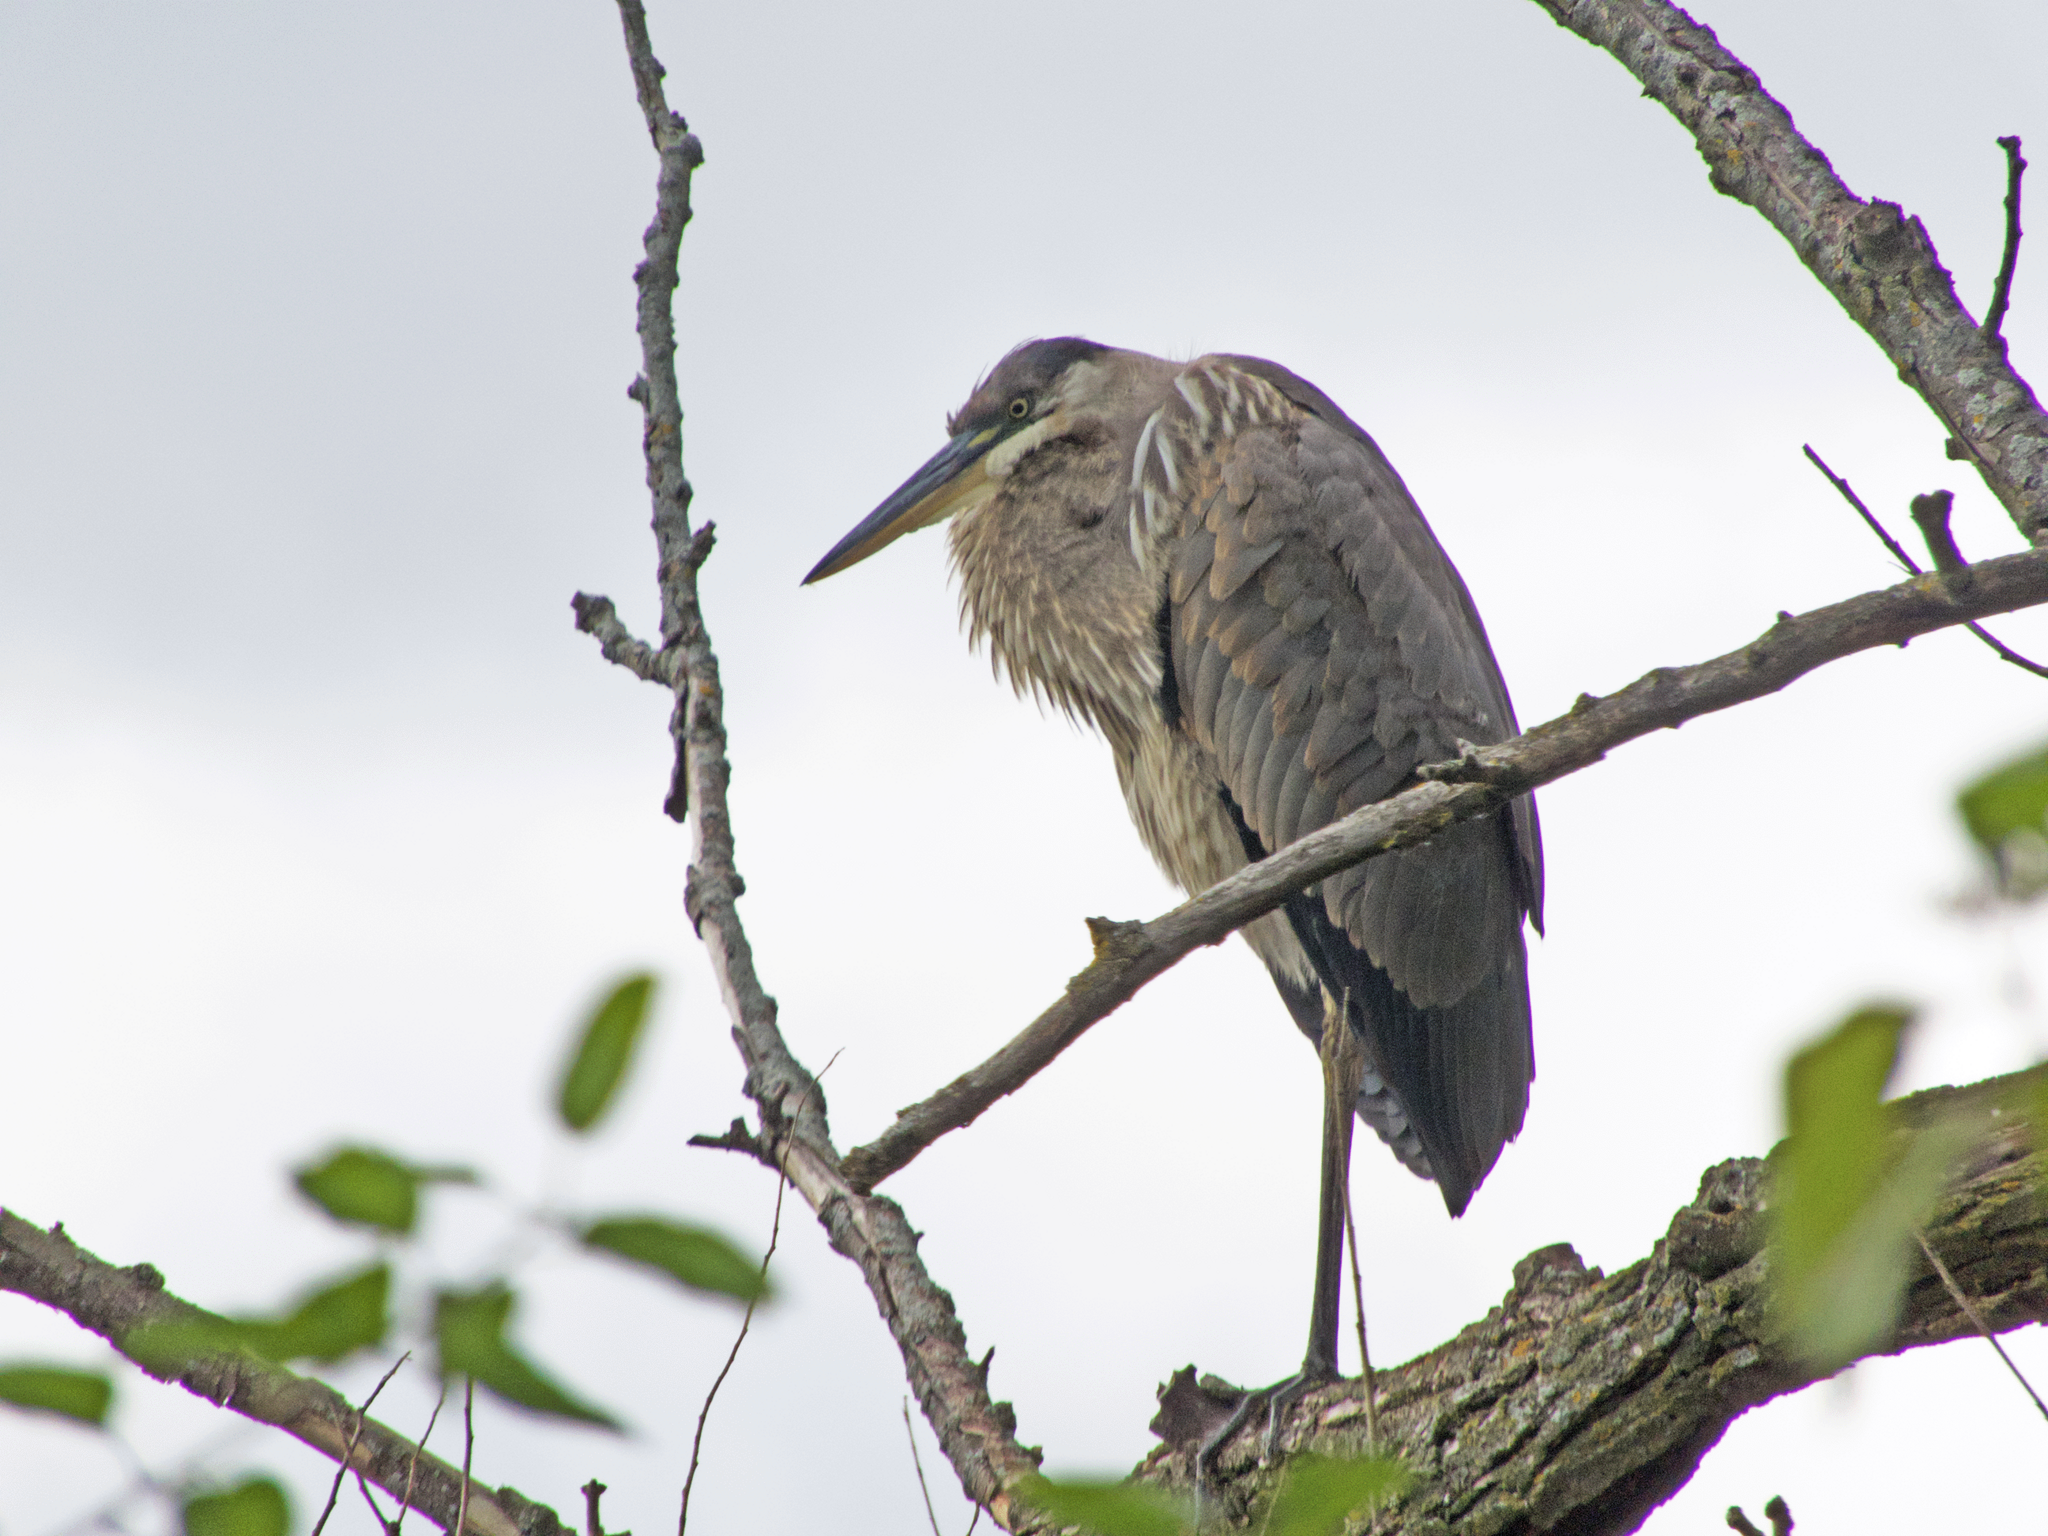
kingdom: Animalia
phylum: Chordata
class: Aves
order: Pelecaniformes
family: Ardeidae
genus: Ardea
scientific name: Ardea herodias
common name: Great blue heron
